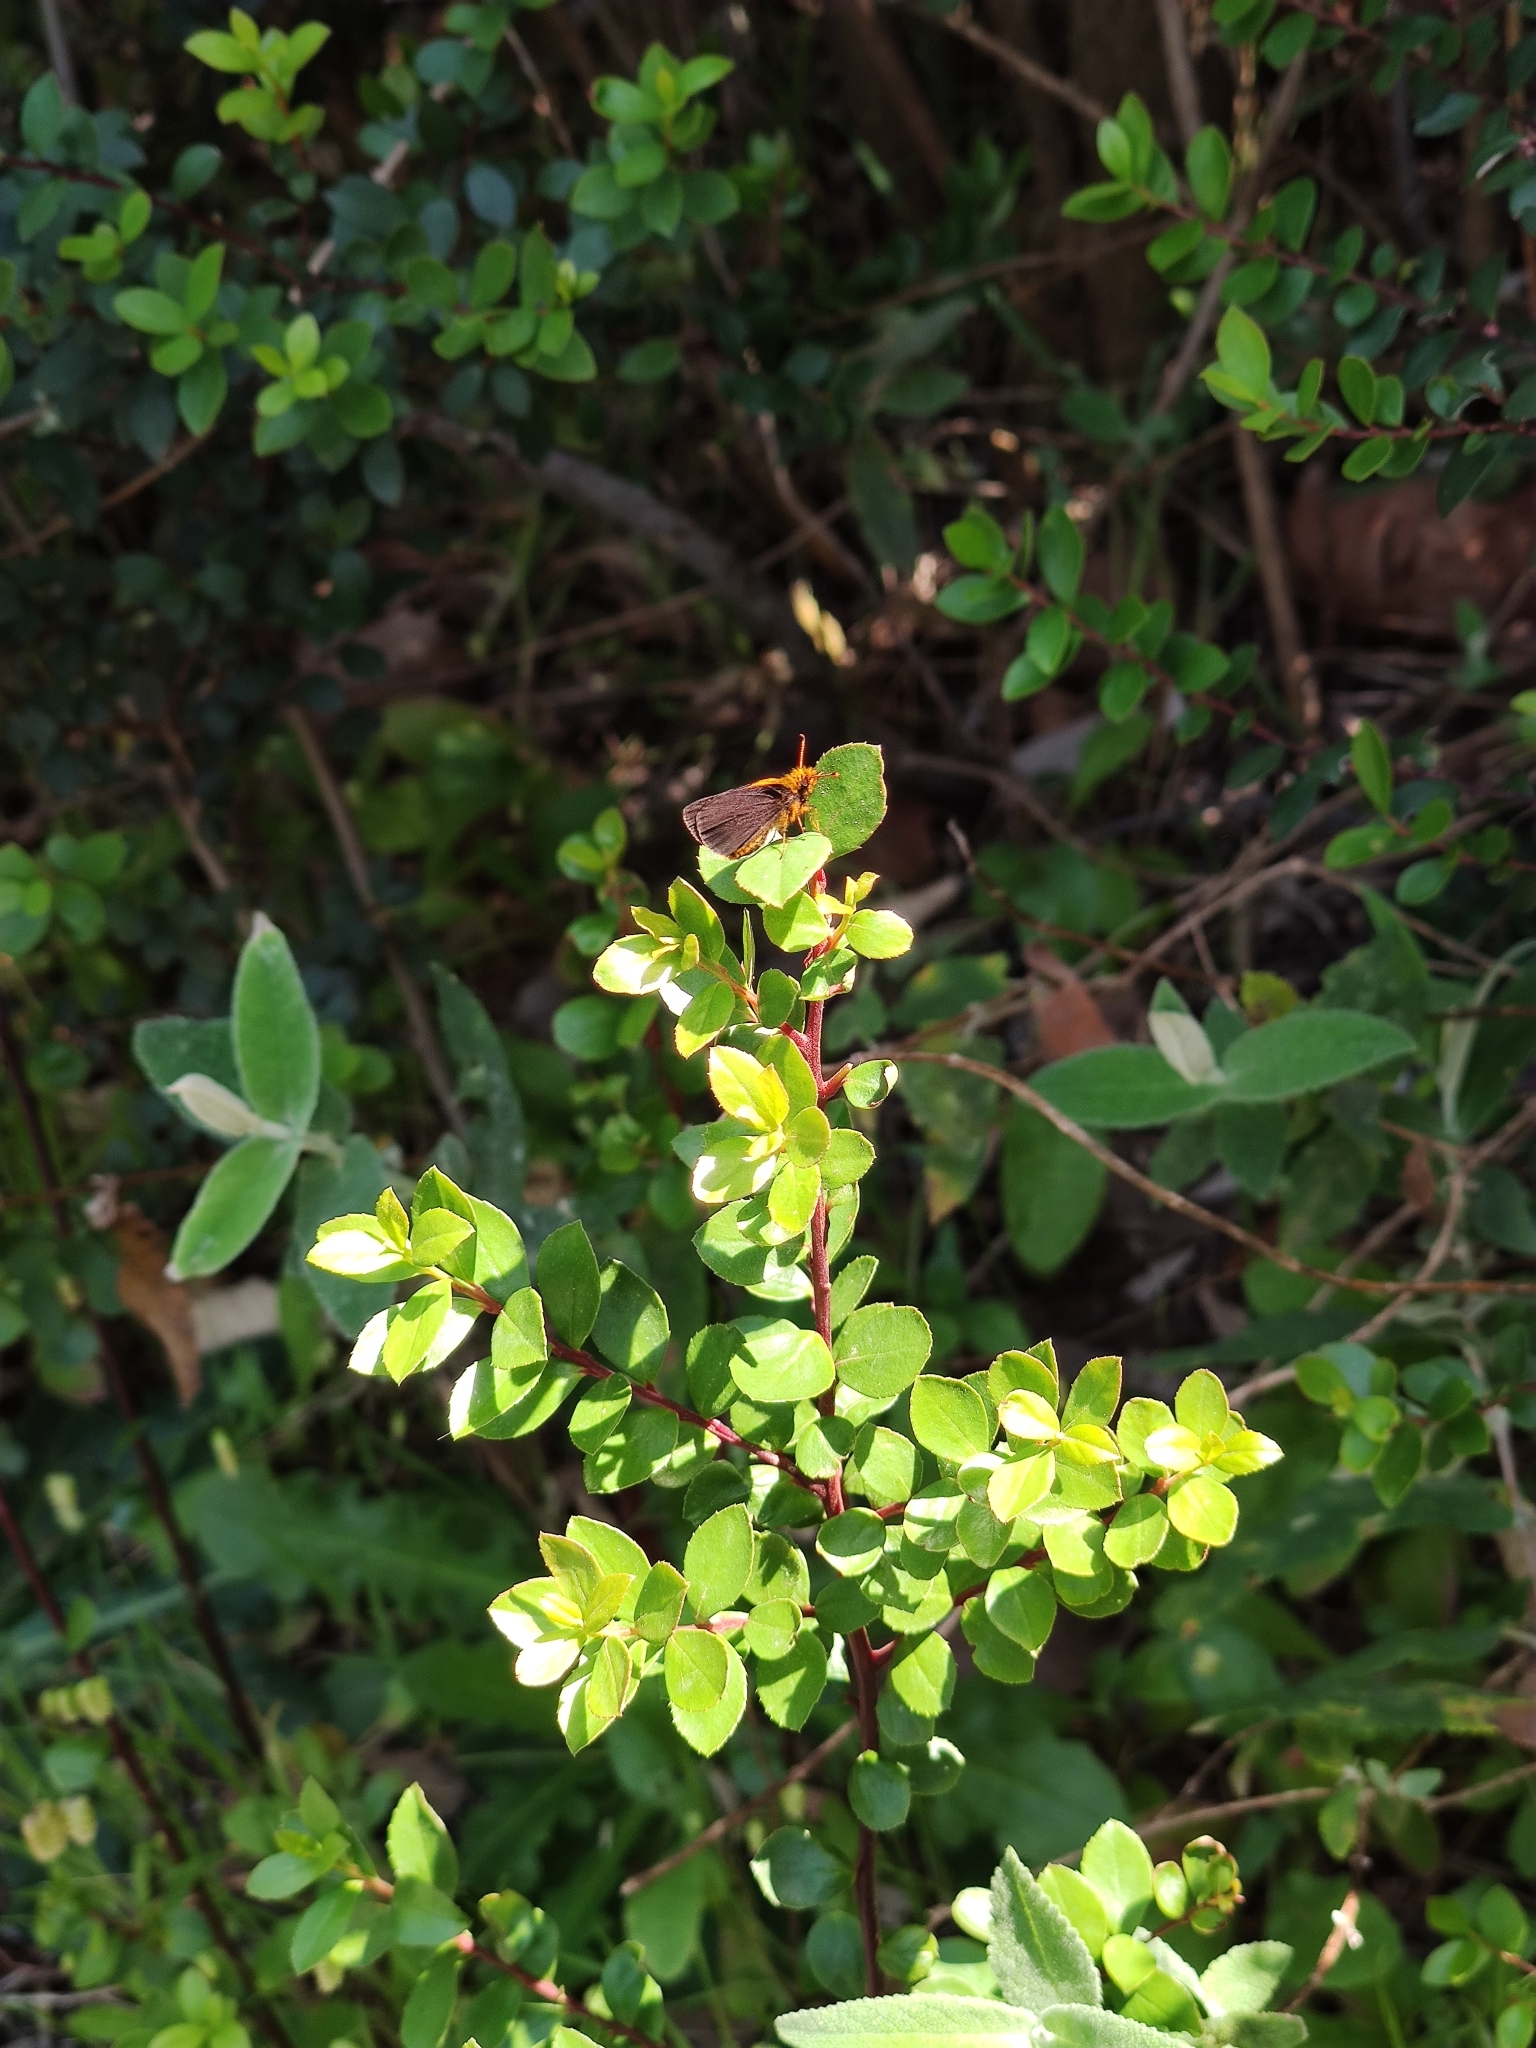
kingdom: Animalia
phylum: Arthropoda
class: Insecta
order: Lepidoptera
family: Hesperiidae
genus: Metisella
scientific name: Metisella metis
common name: Western gold-spotted sylph
